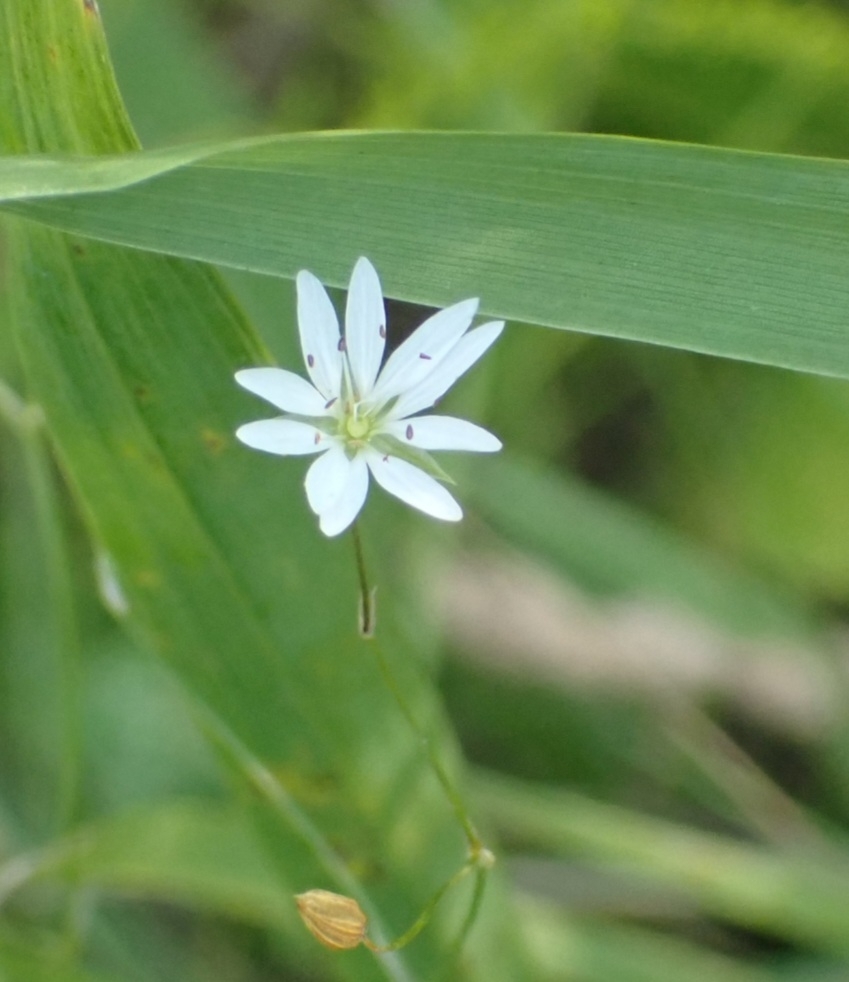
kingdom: Plantae
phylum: Tracheophyta
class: Magnoliopsida
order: Caryophyllales
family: Caryophyllaceae
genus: Stellaria
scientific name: Stellaria graminea
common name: Grass-like starwort
